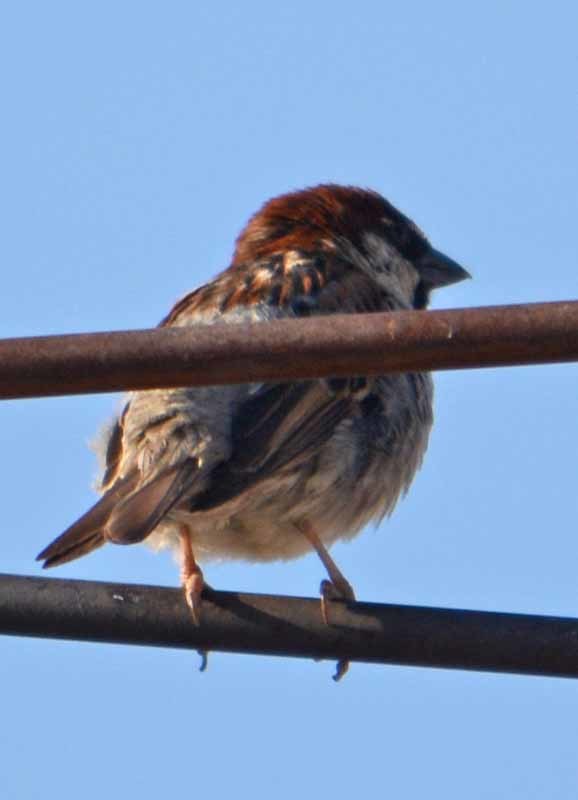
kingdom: Animalia
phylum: Chordata
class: Aves
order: Passeriformes
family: Passeridae
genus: Passer
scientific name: Passer domesticus
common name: House sparrow
